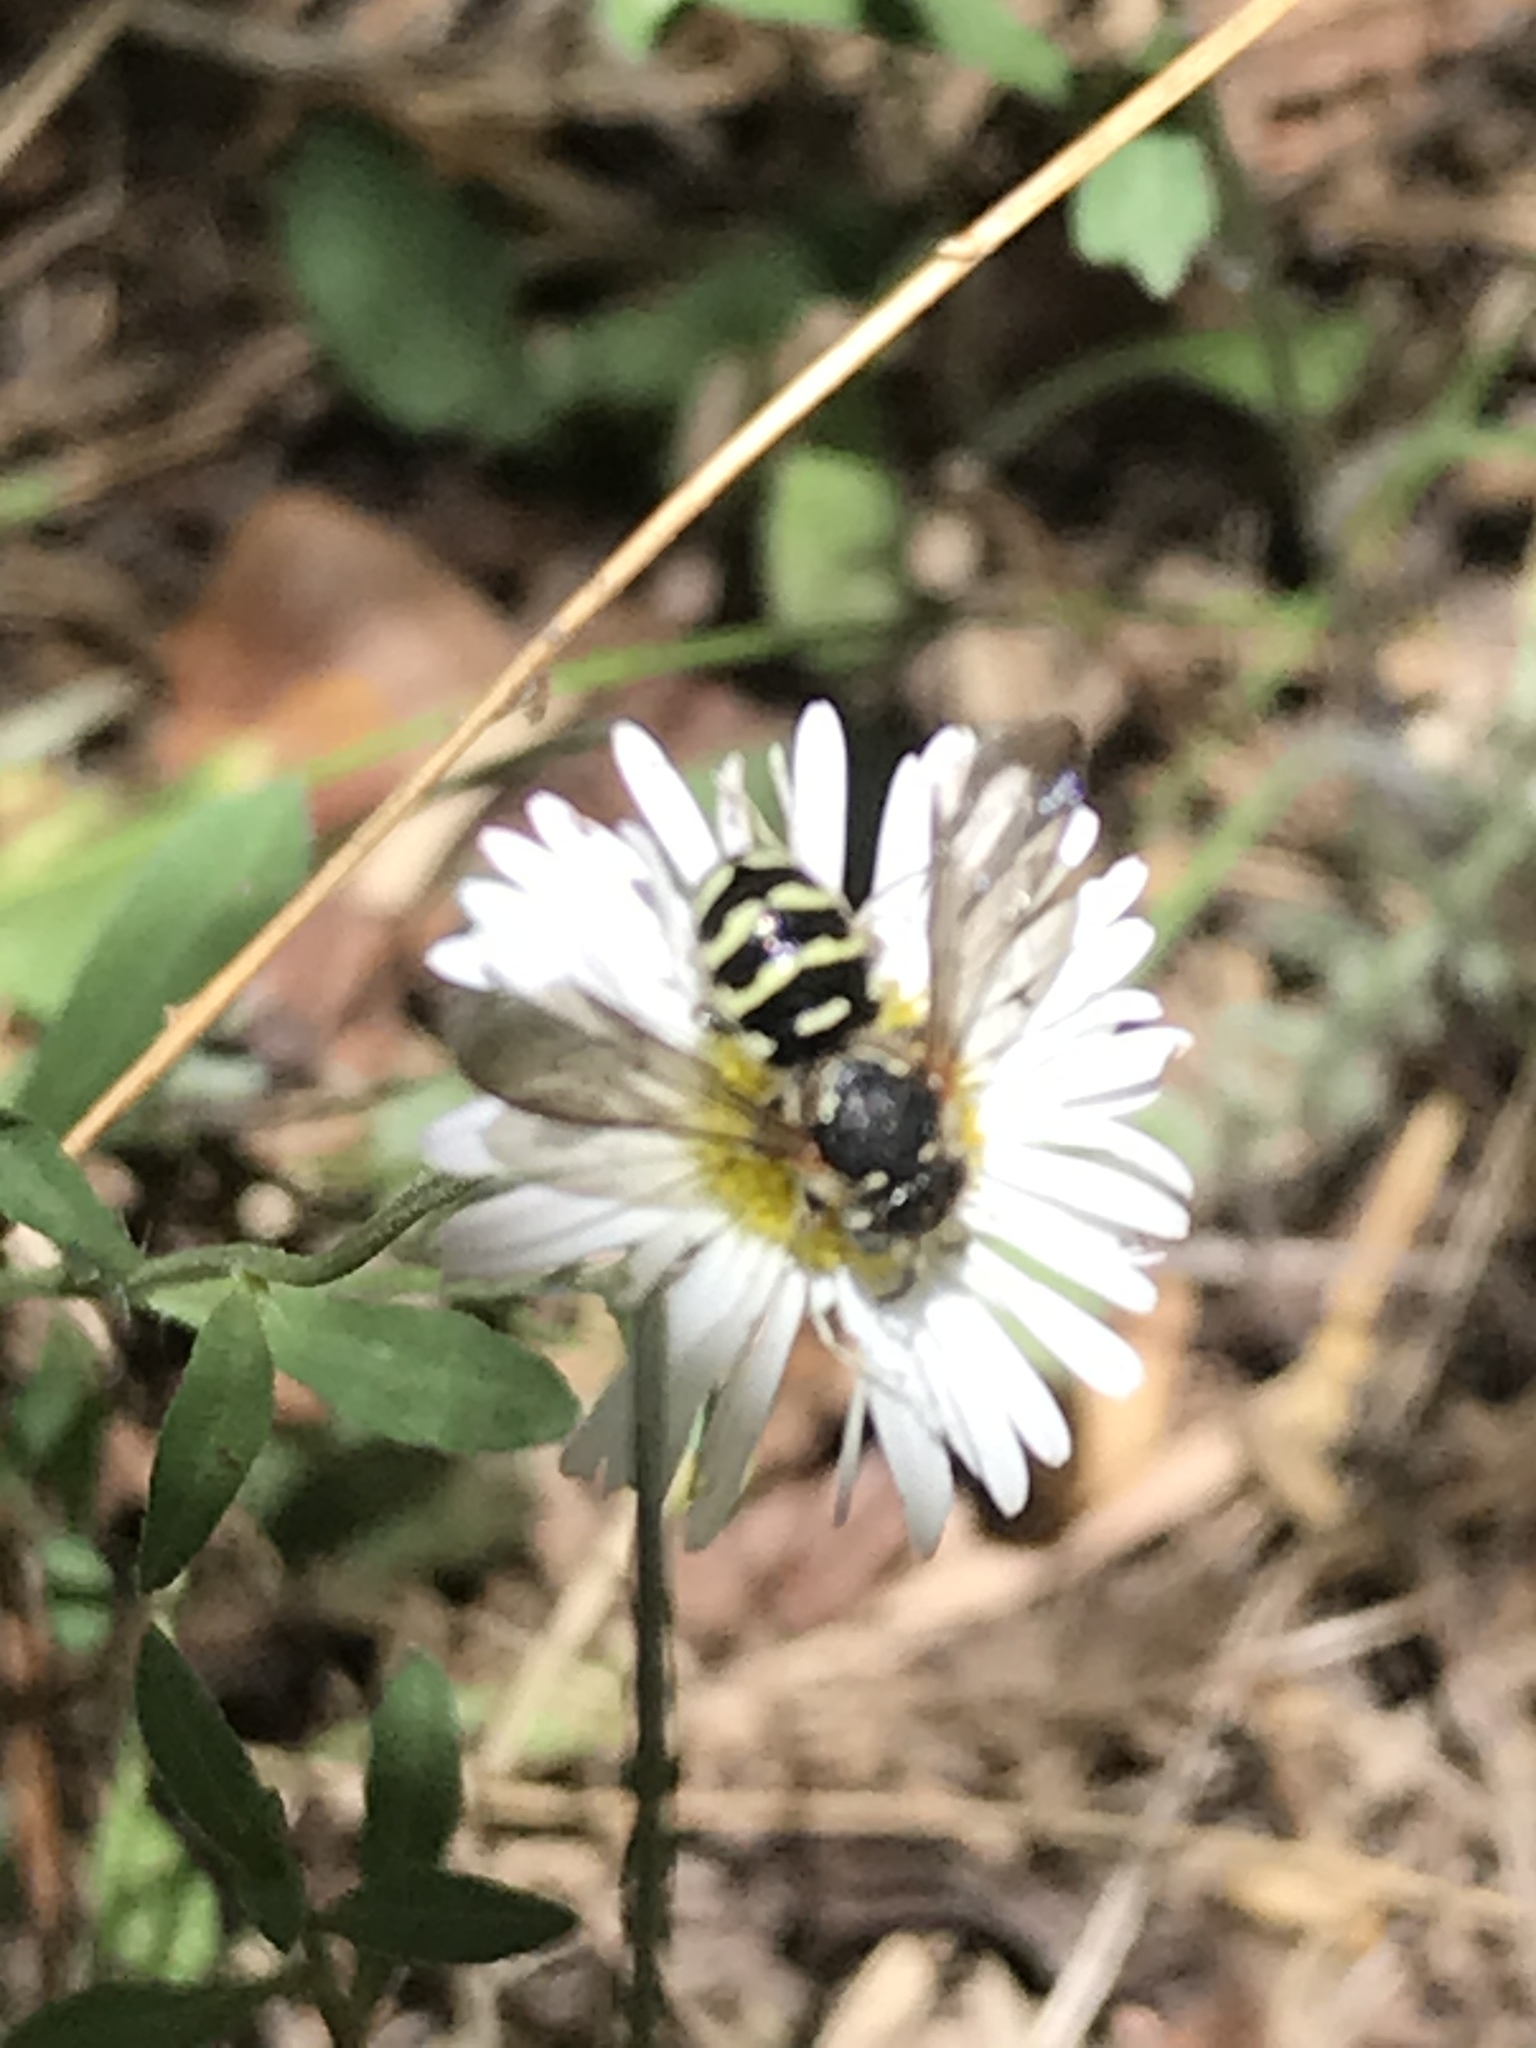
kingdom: Animalia
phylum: Arthropoda
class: Insecta
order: Hymenoptera
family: Megachilidae
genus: Dianthidium
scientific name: Dianthidium
